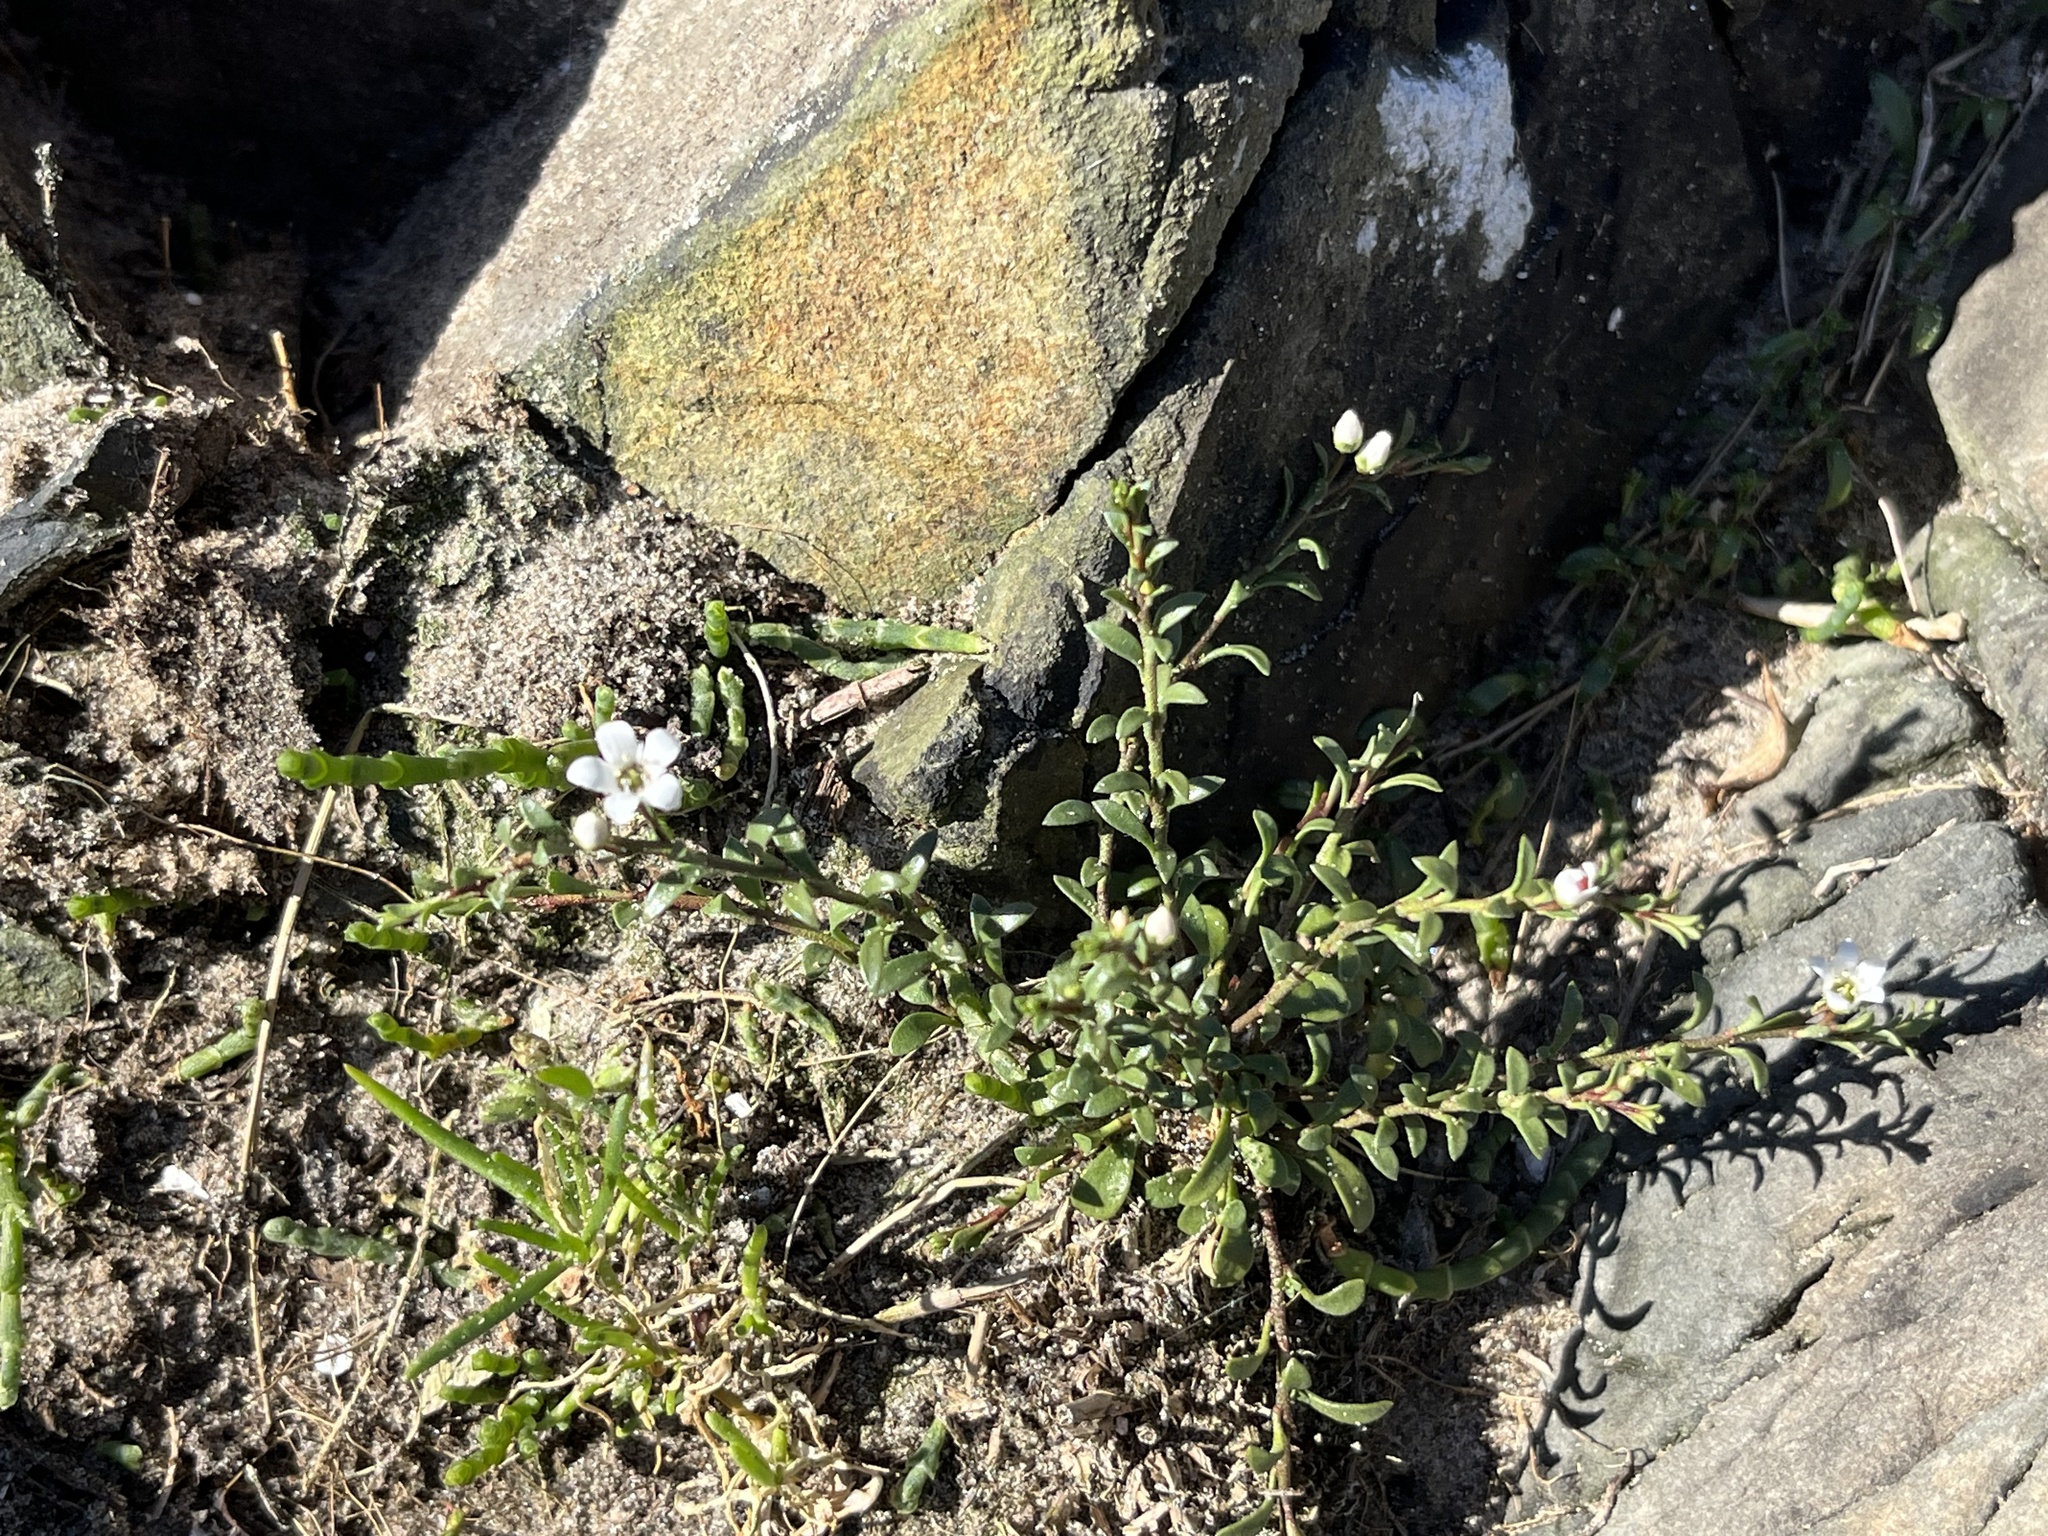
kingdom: Plantae
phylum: Tracheophyta
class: Magnoliopsida
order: Ericales
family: Primulaceae
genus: Samolus
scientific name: Samolus repens
